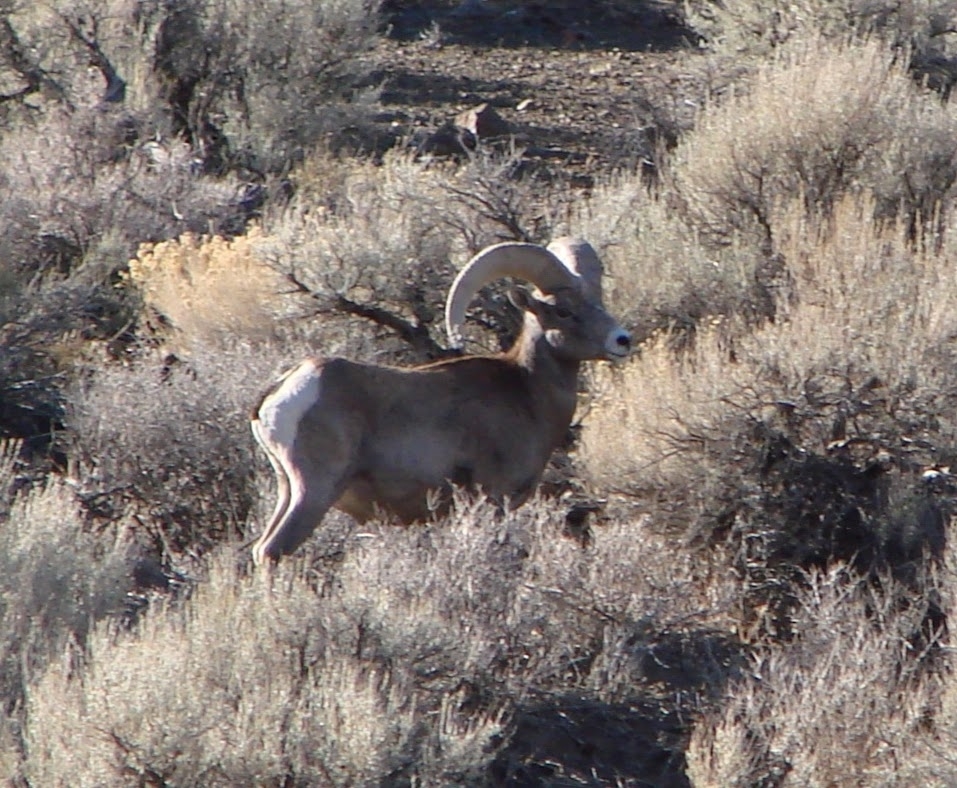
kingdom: Animalia
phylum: Chordata
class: Mammalia
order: Artiodactyla
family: Bovidae
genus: Ovis
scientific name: Ovis canadensis
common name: Bighorn sheep
